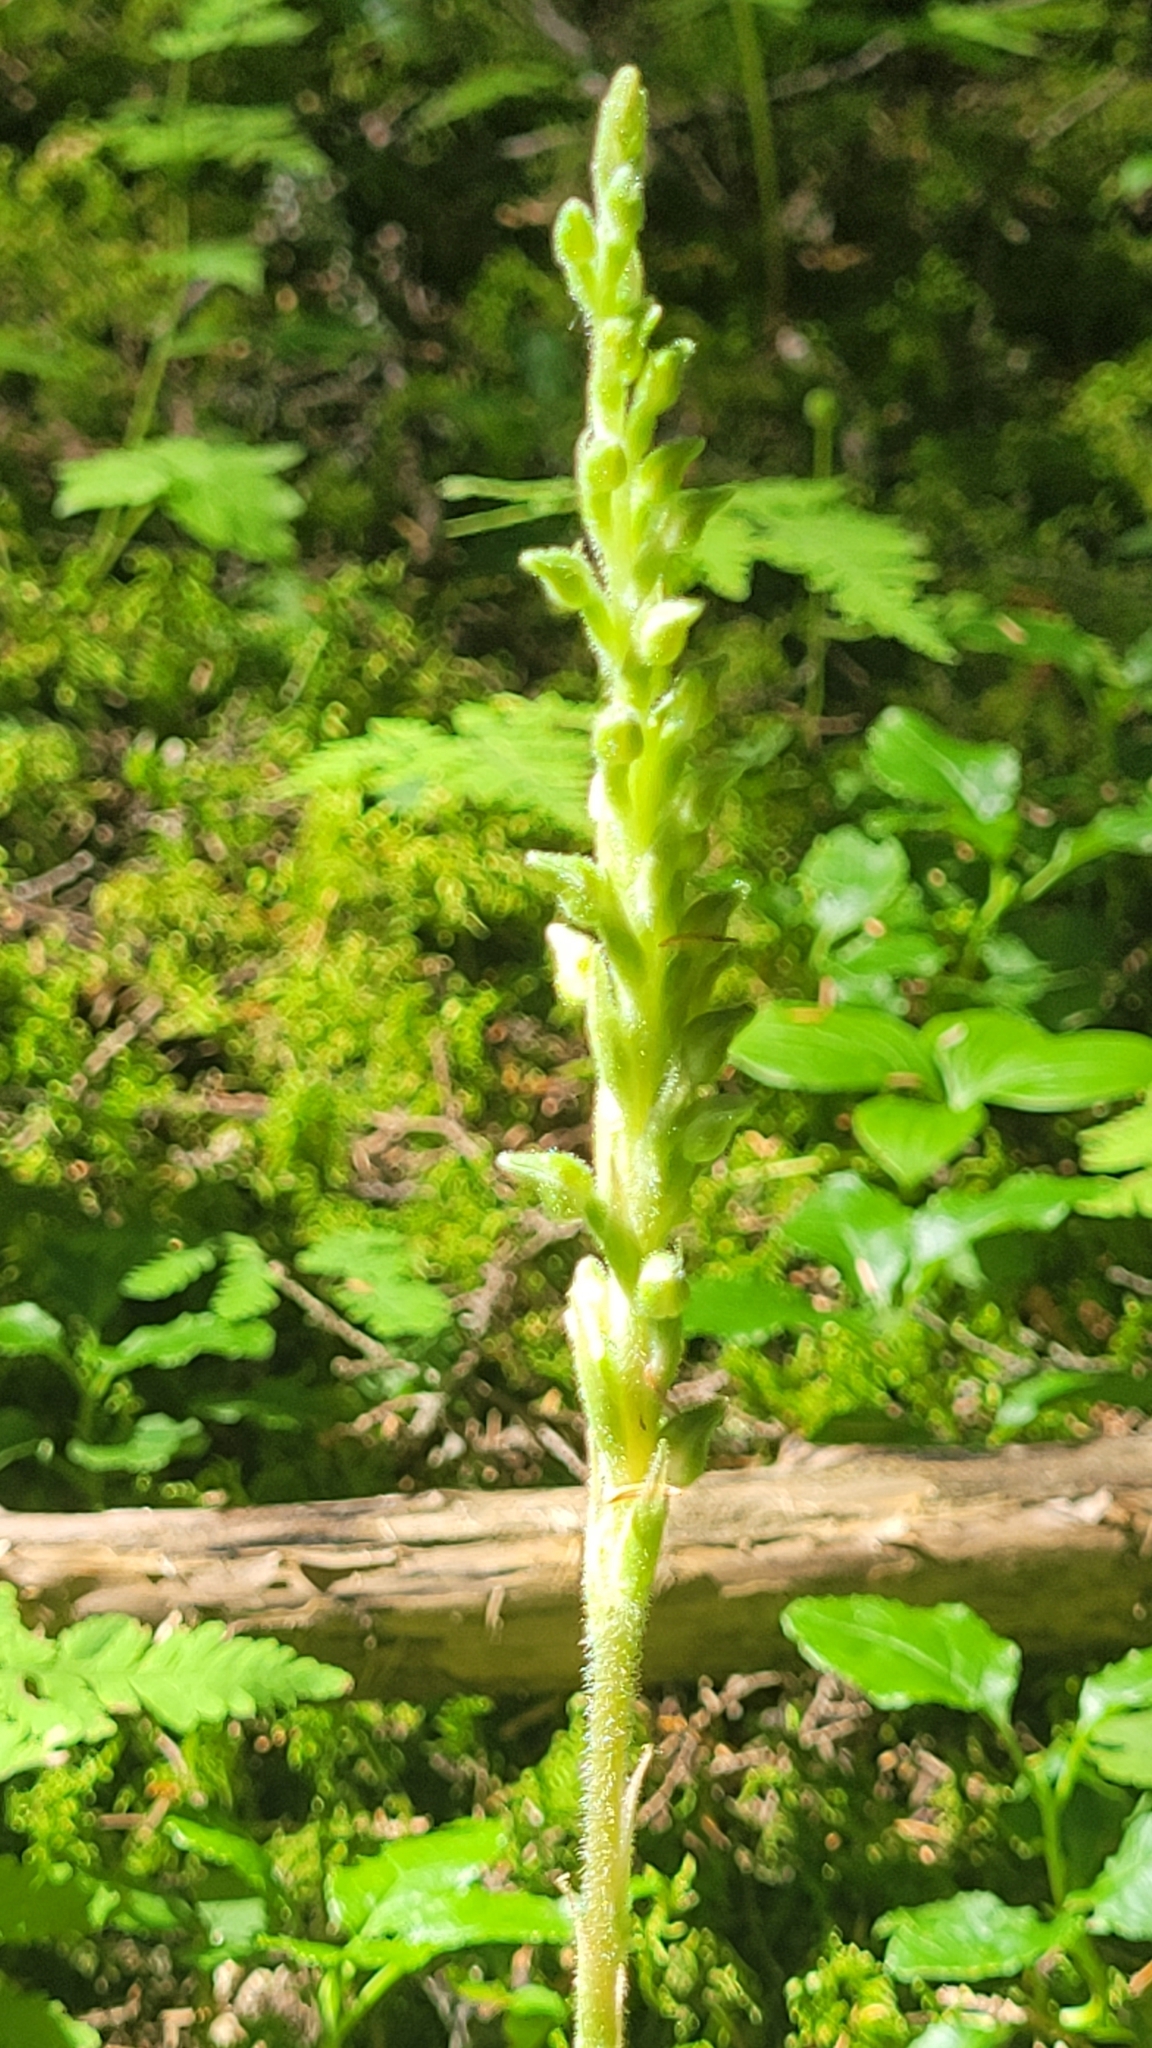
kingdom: Plantae
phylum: Tracheophyta
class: Liliopsida
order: Asparagales
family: Orchidaceae
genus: Goodyera
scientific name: Goodyera oblongifolia
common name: Giant rattlesnake-plantain
